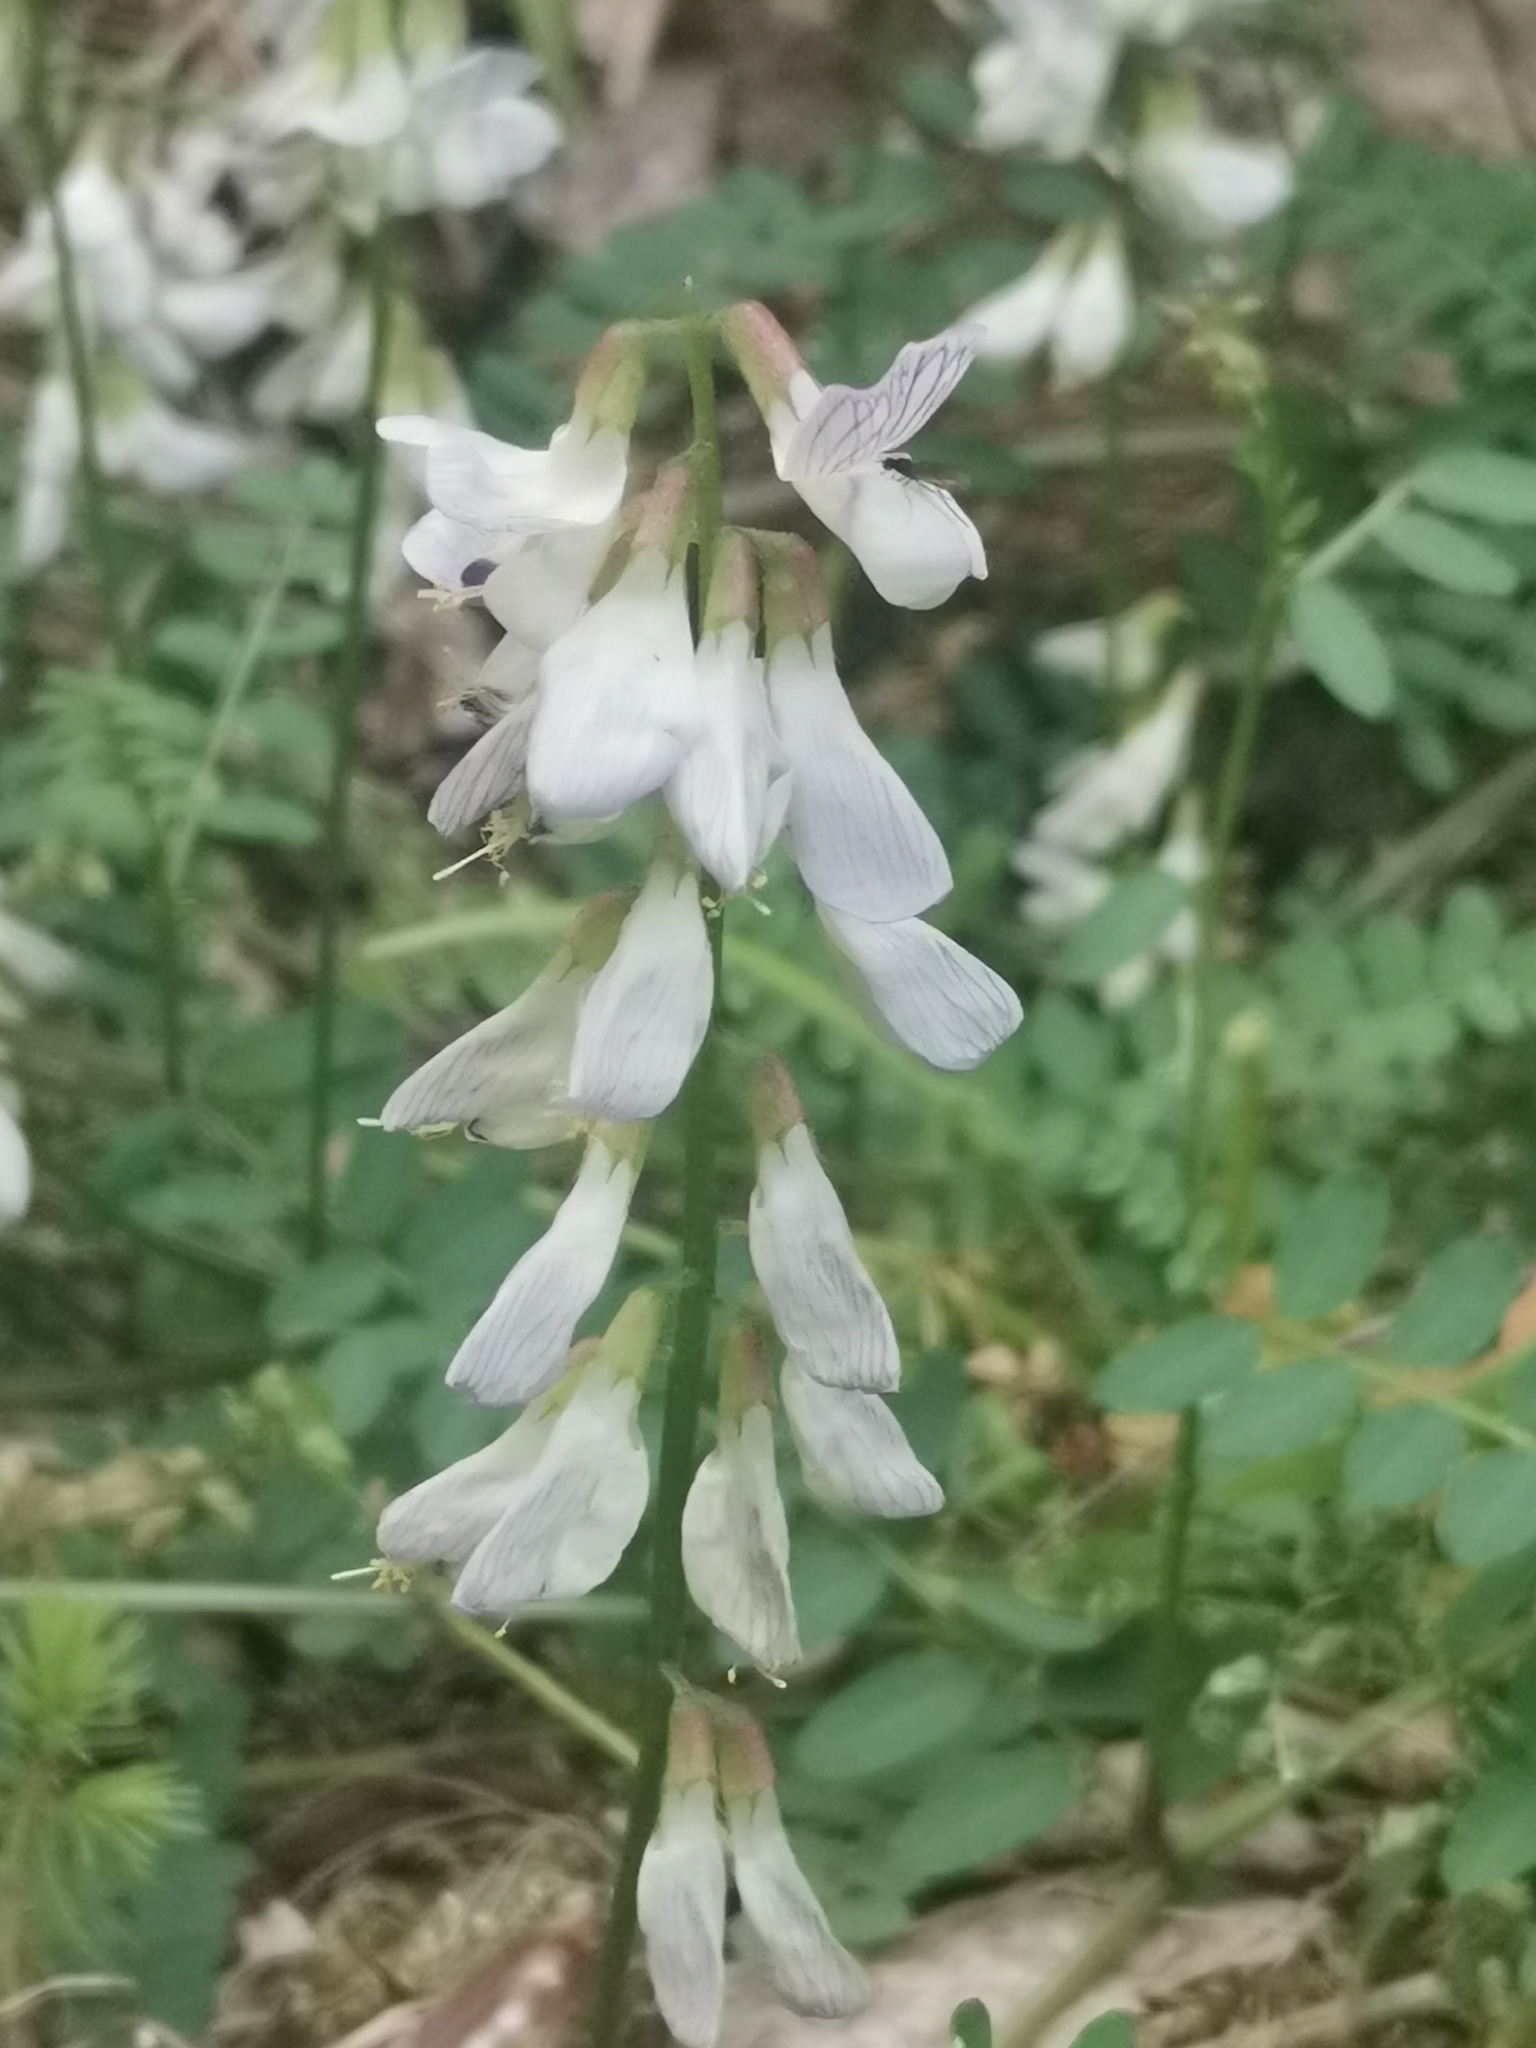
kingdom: Plantae
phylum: Tracheophyta
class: Magnoliopsida
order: Fabales
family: Fabaceae
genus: Vicia
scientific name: Vicia sylvatica
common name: Wood vetch
